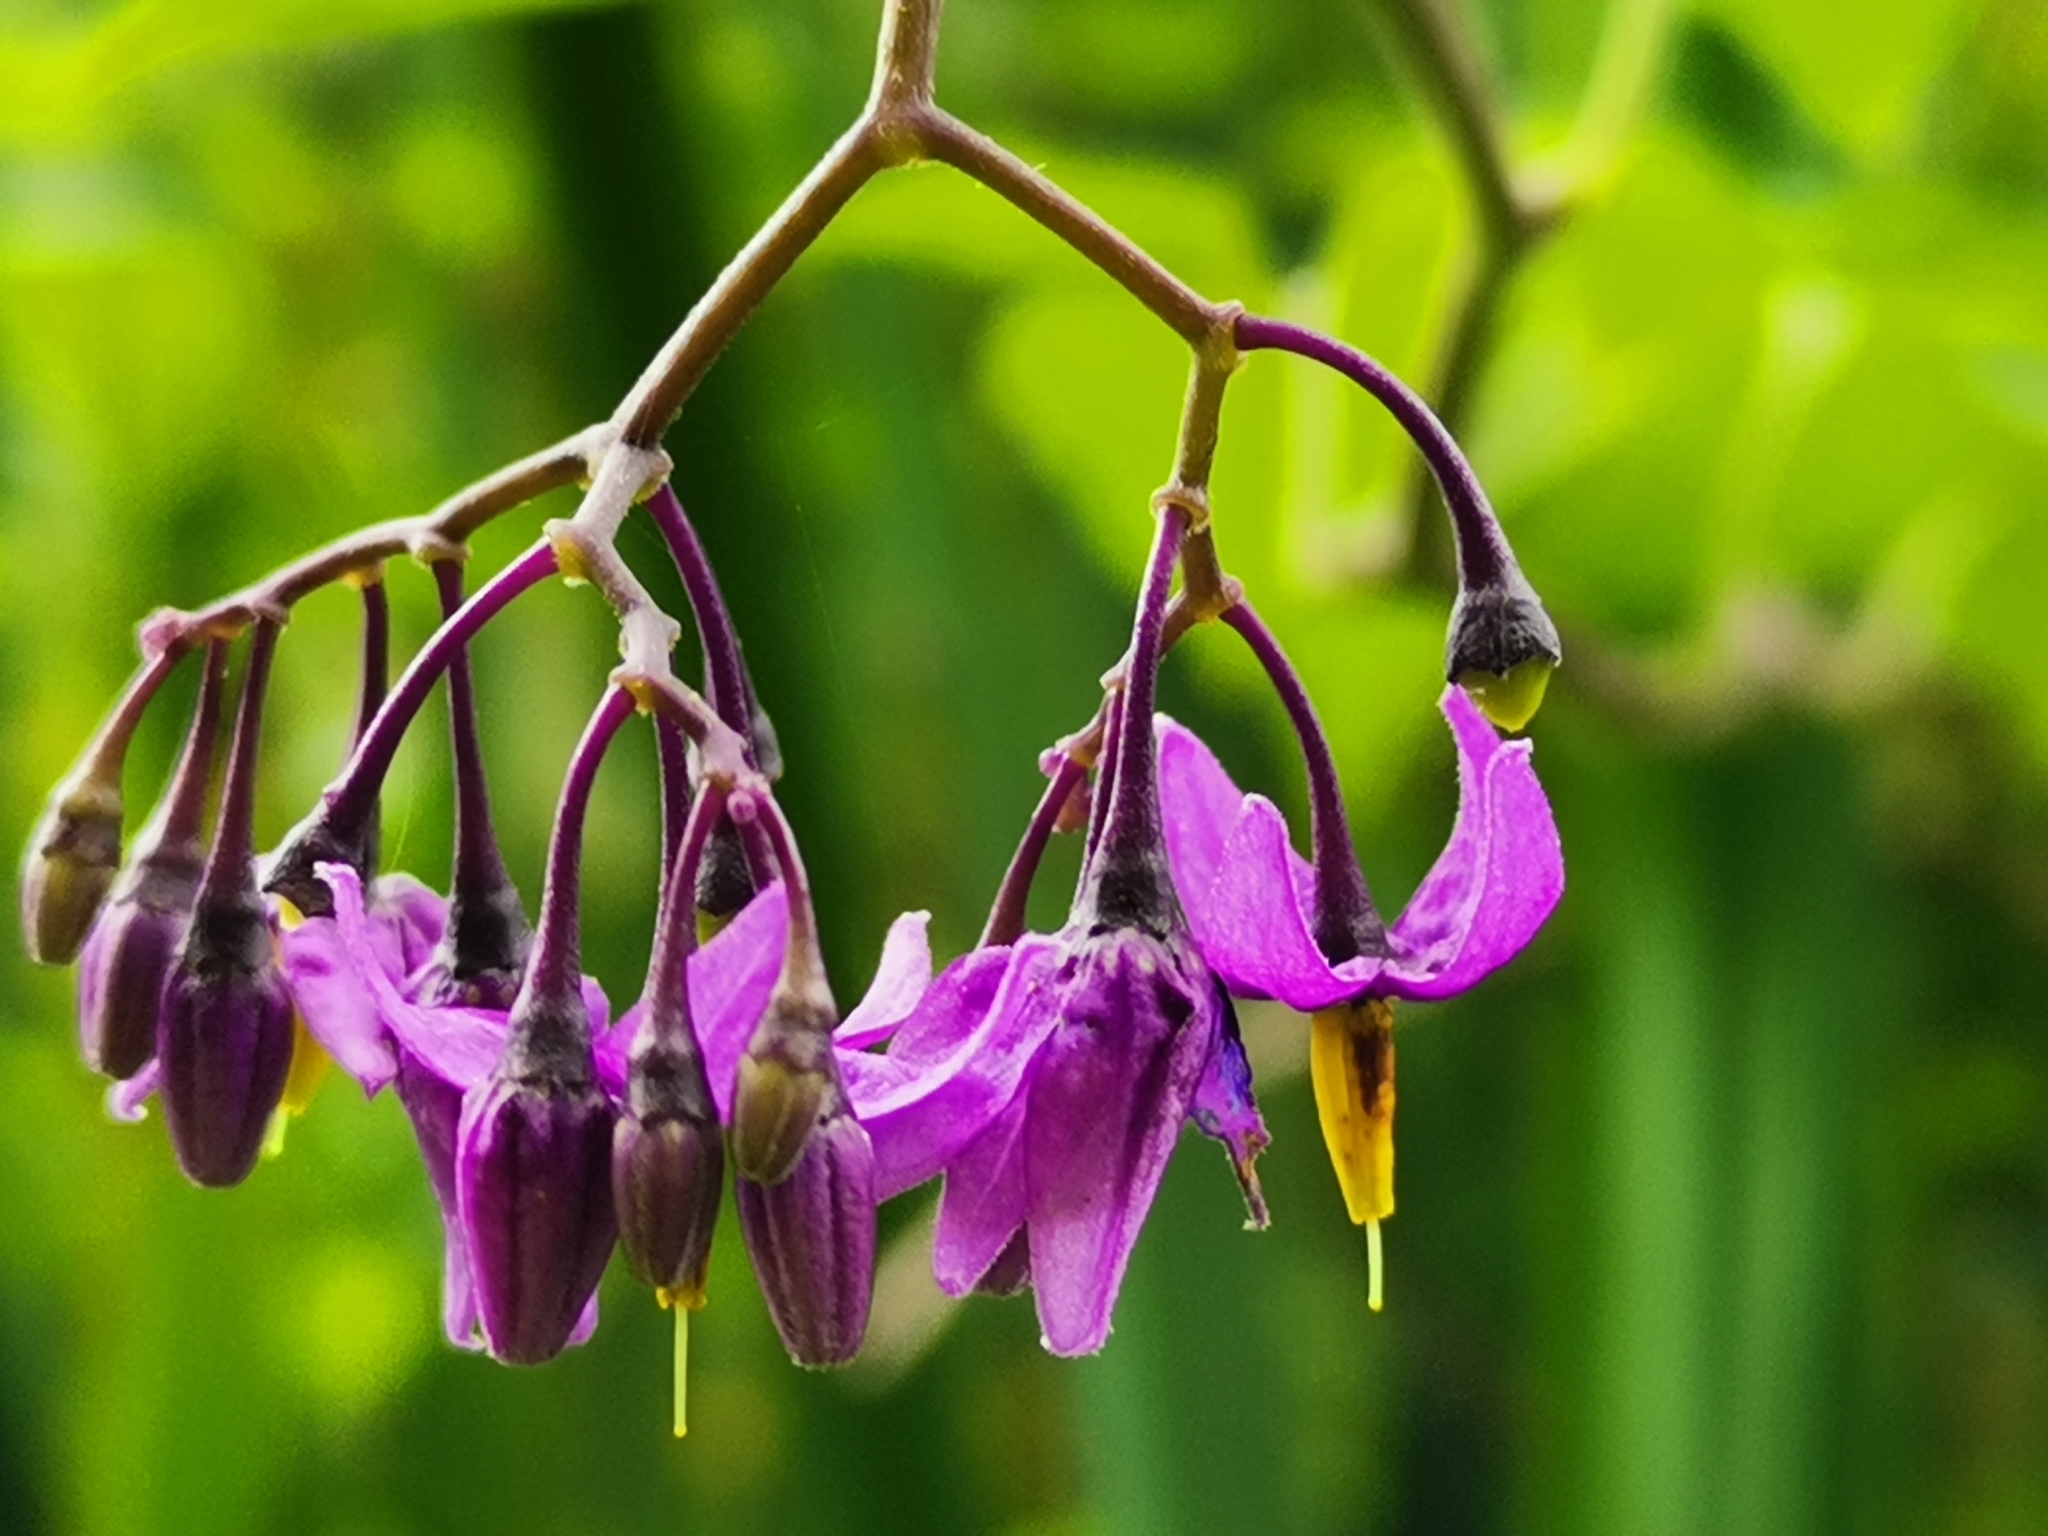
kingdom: Plantae
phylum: Tracheophyta
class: Magnoliopsida
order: Solanales
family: Solanaceae
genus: Solanum
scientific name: Solanum dulcamara
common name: Climbing nightshade
